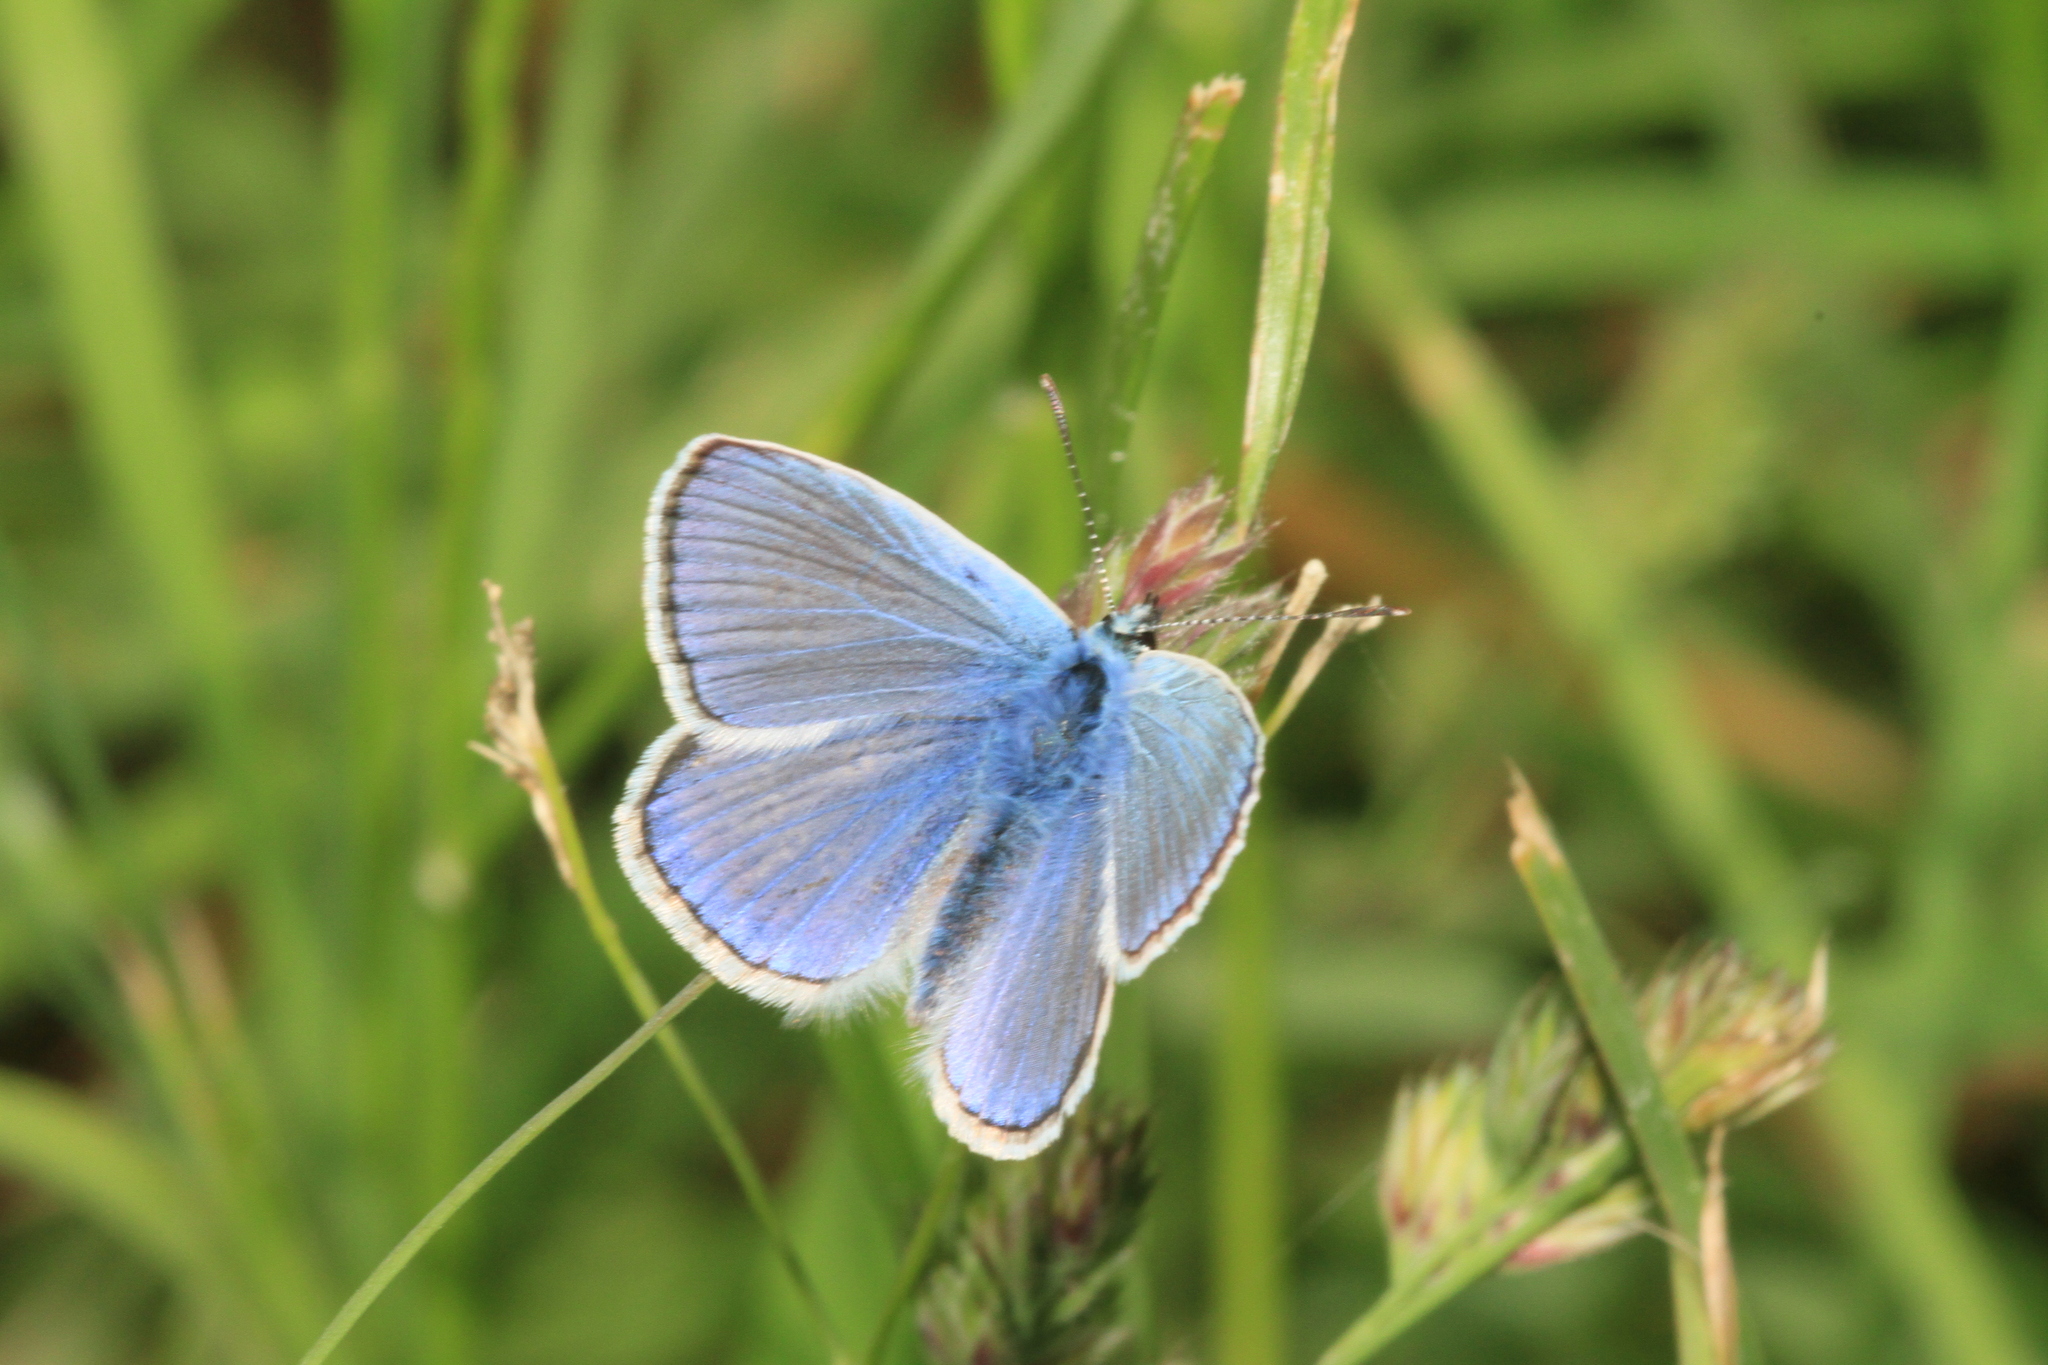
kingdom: Animalia
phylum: Arthropoda
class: Insecta
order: Lepidoptera
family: Lycaenidae
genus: Polyommatus
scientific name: Polyommatus icarus
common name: Common blue
